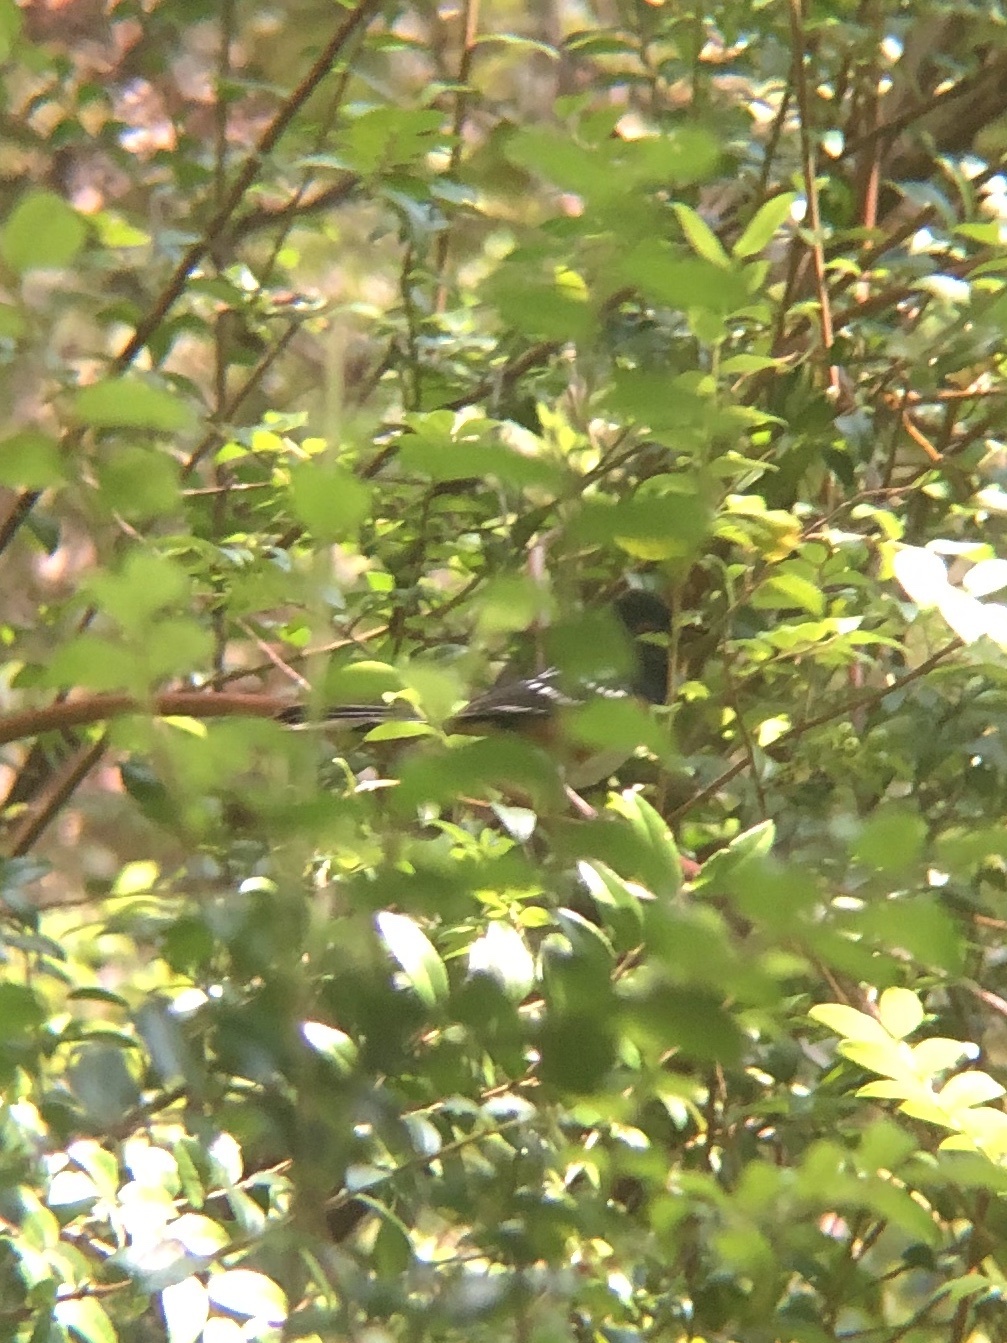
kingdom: Animalia
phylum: Chordata
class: Aves
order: Passeriformes
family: Passerellidae
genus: Pipilo
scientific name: Pipilo maculatus
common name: Spotted towhee
